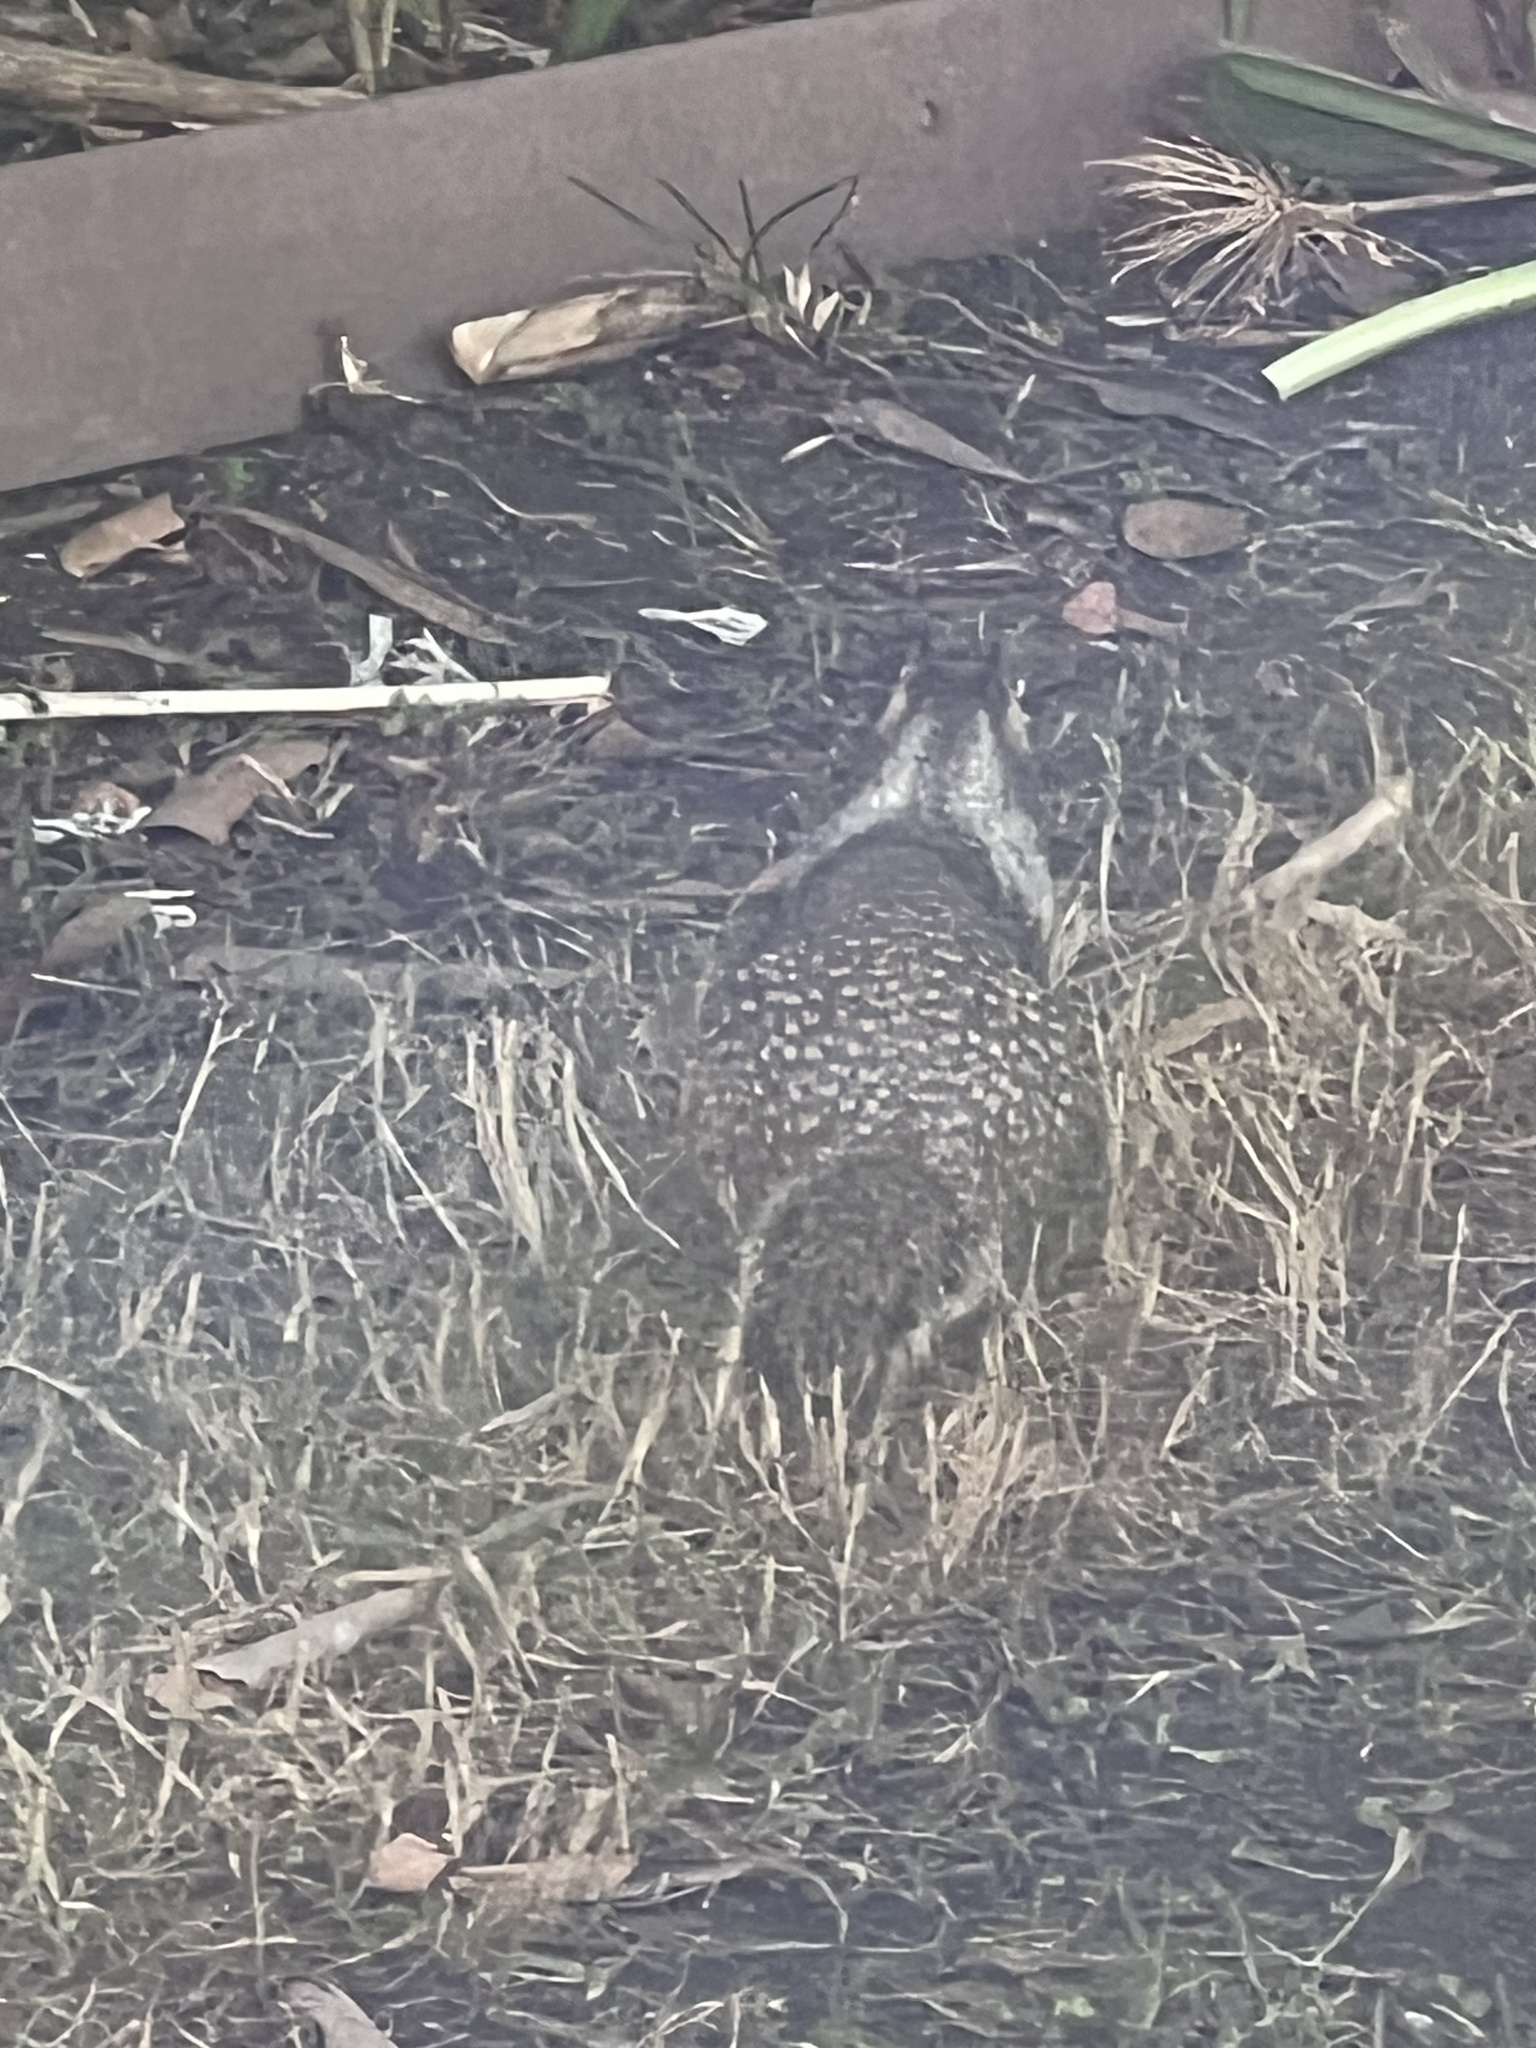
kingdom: Animalia
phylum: Chordata
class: Mammalia
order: Rodentia
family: Sciuridae
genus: Otospermophilus
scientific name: Otospermophilus beecheyi
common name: California ground squirrel
